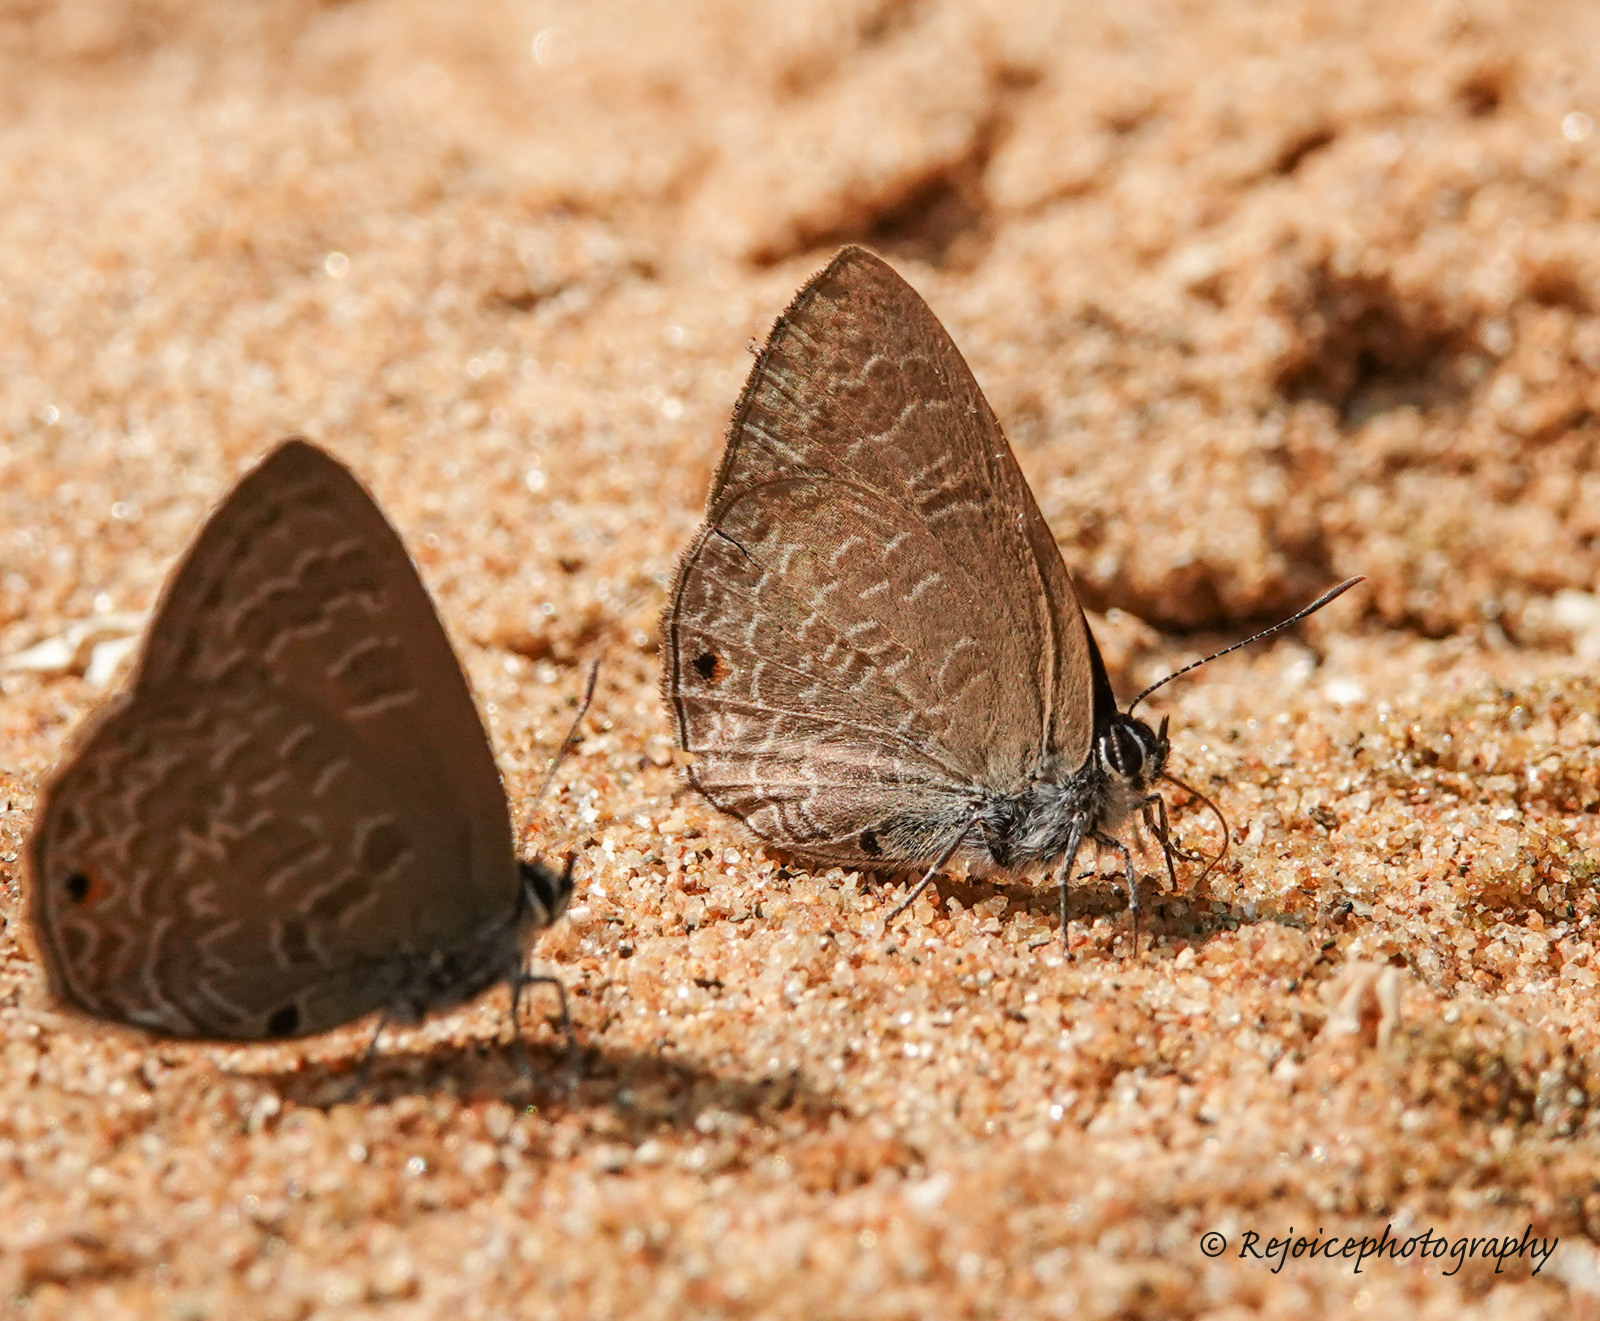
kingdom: Animalia
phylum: Arthropoda
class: Insecta
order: Lepidoptera
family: Lycaenidae
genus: Anthene
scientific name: Anthene emolus
